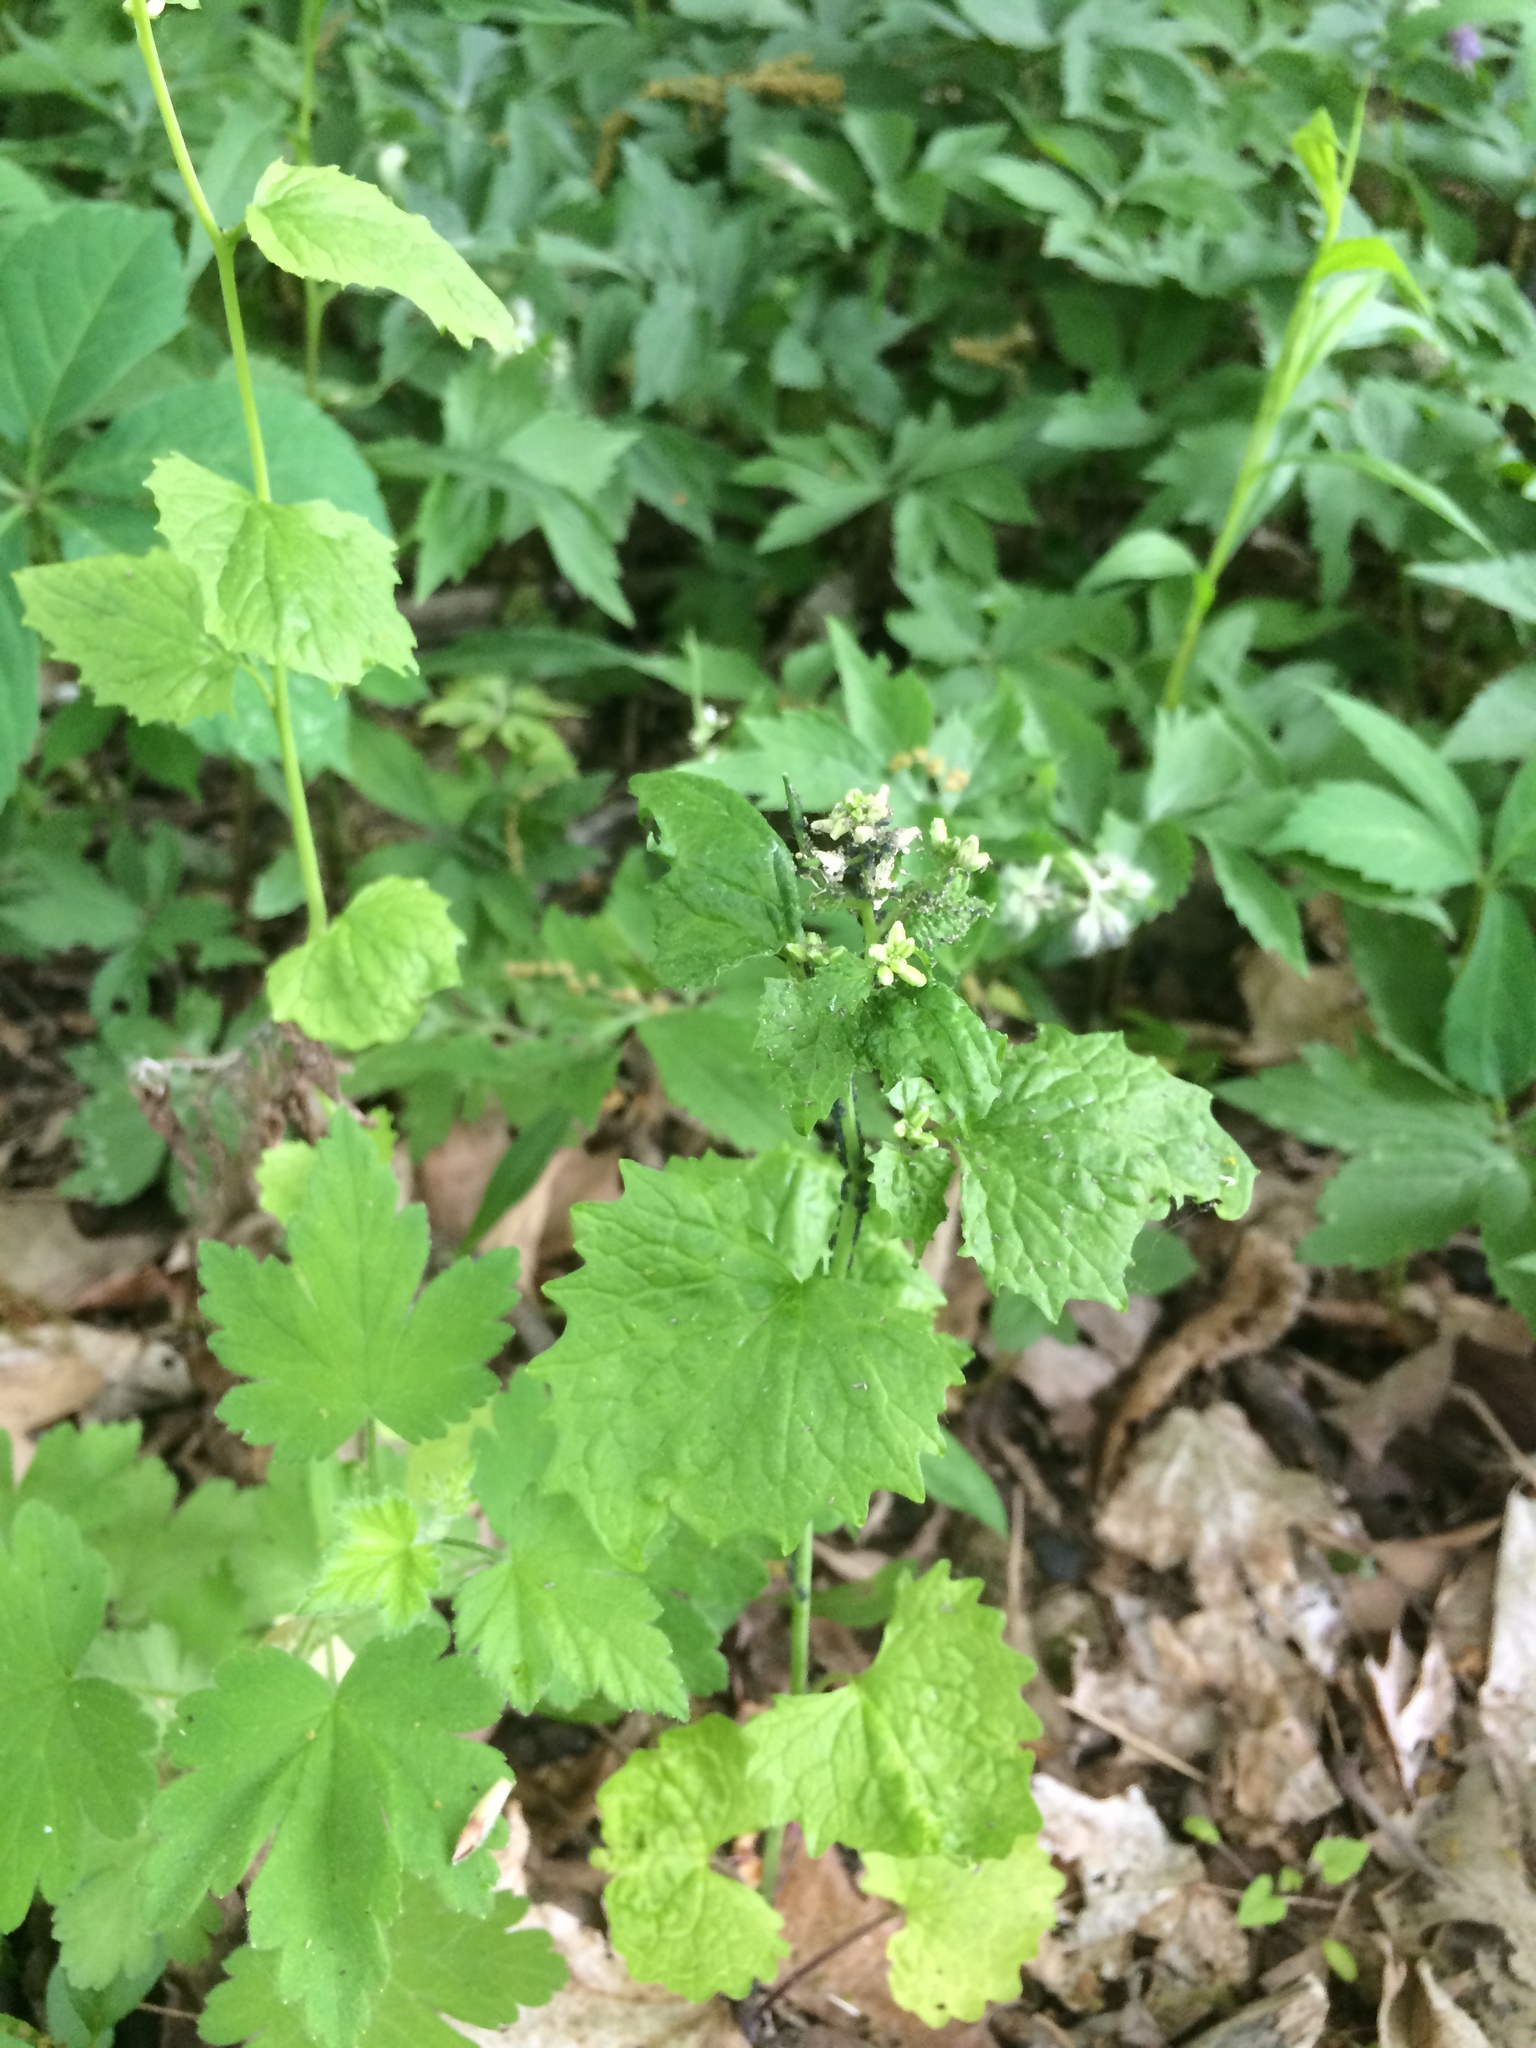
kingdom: Plantae
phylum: Tracheophyta
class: Magnoliopsida
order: Brassicales
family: Brassicaceae
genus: Alliaria
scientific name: Alliaria petiolata
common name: Garlic mustard
